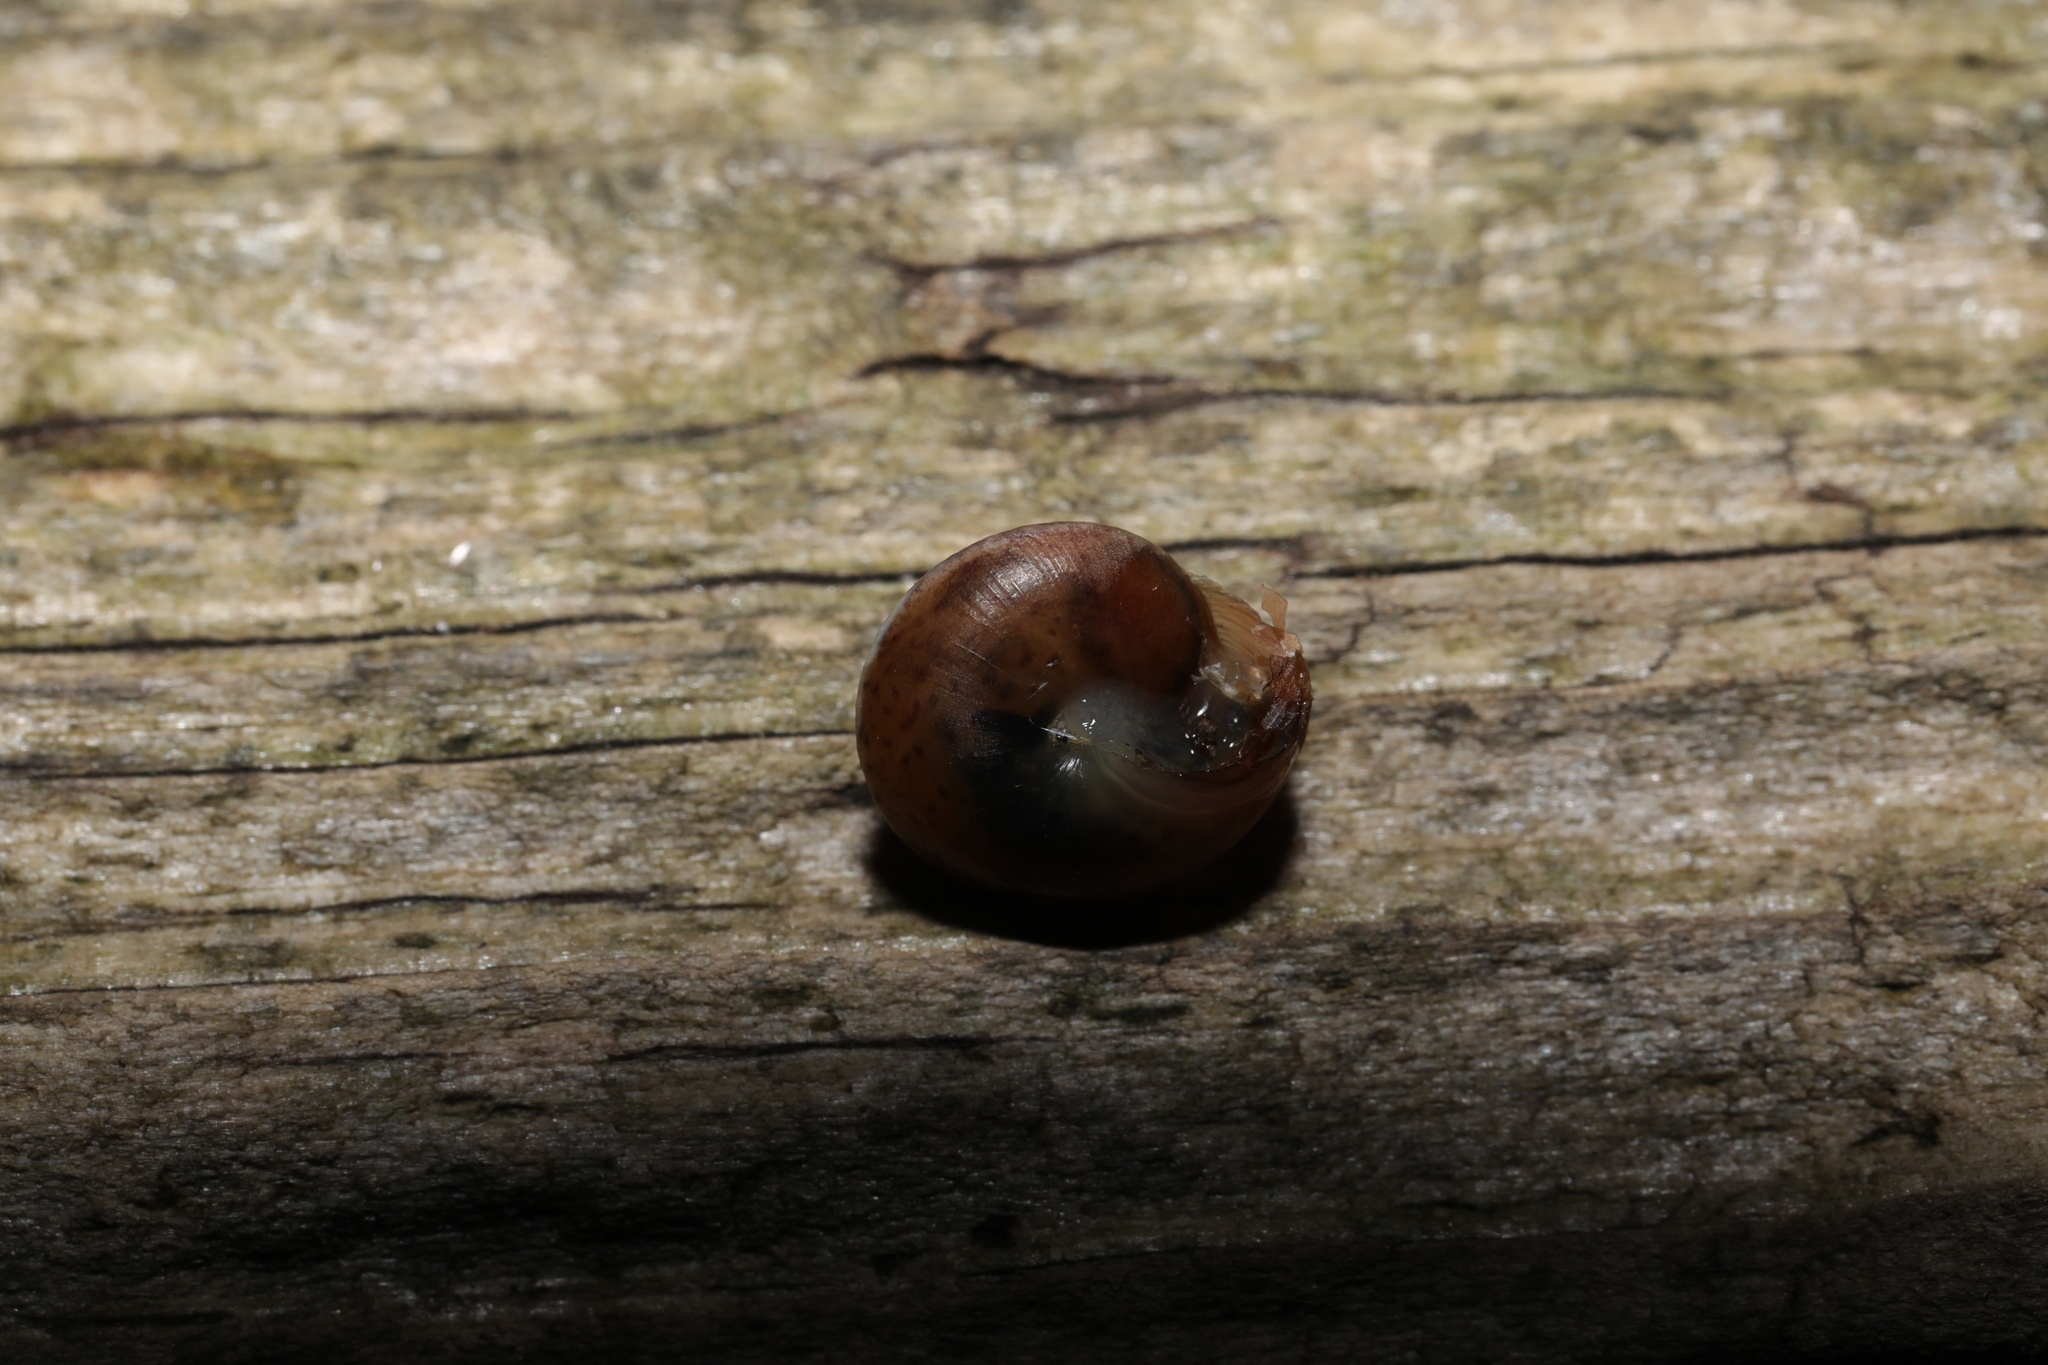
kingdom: Animalia
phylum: Mollusca
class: Gastropoda
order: Stylommatophora
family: Hygromiidae
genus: Hygromia
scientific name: Hygromia cinctella
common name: Girdled snail
